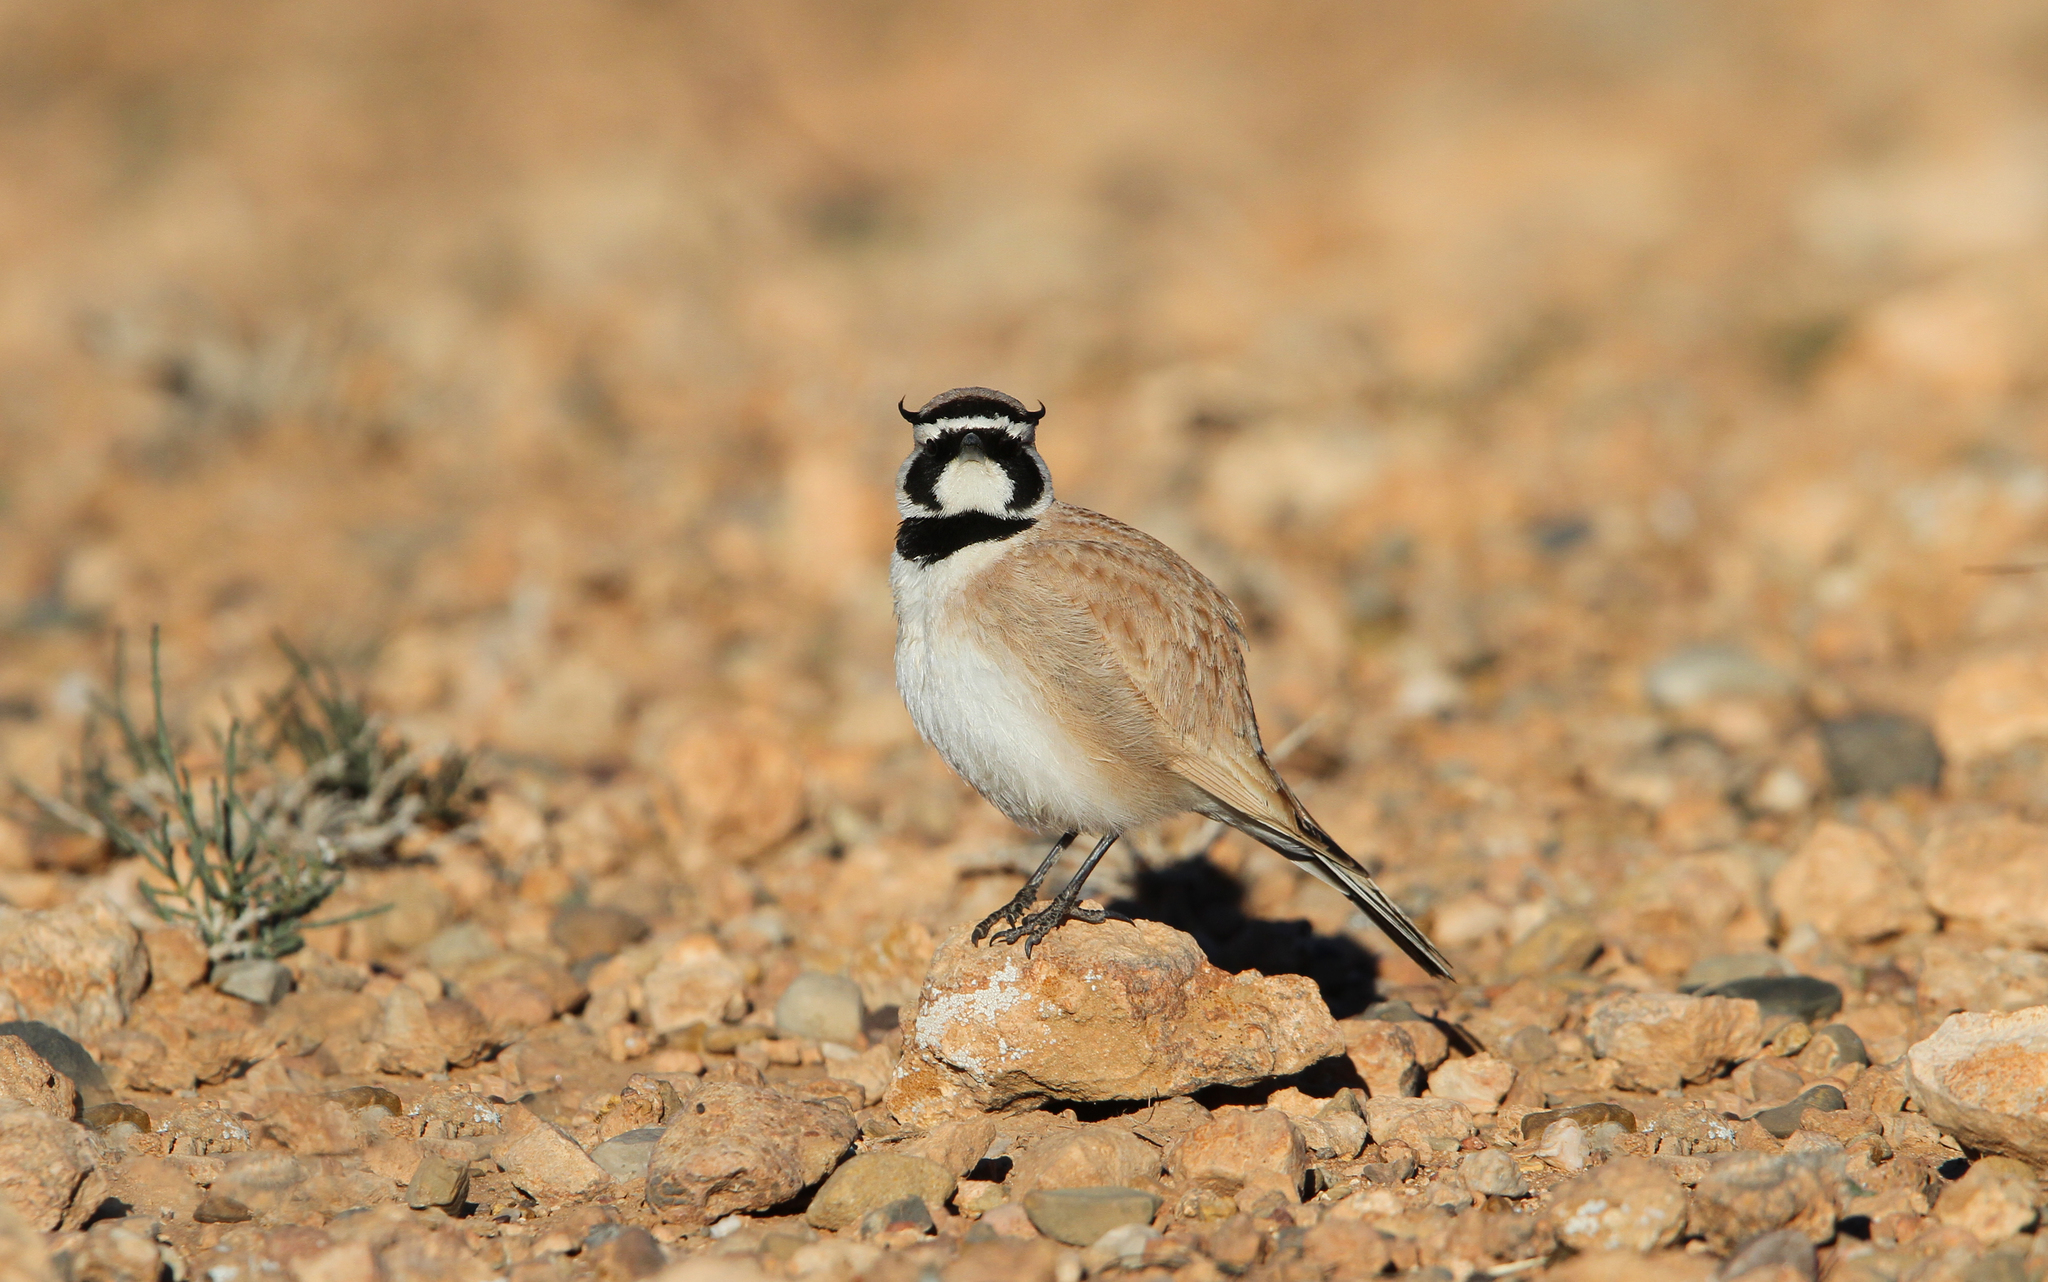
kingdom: Animalia
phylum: Chordata
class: Aves
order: Passeriformes
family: Alaudidae
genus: Eremophila
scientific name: Eremophila bilopha
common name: Temminck's lark
